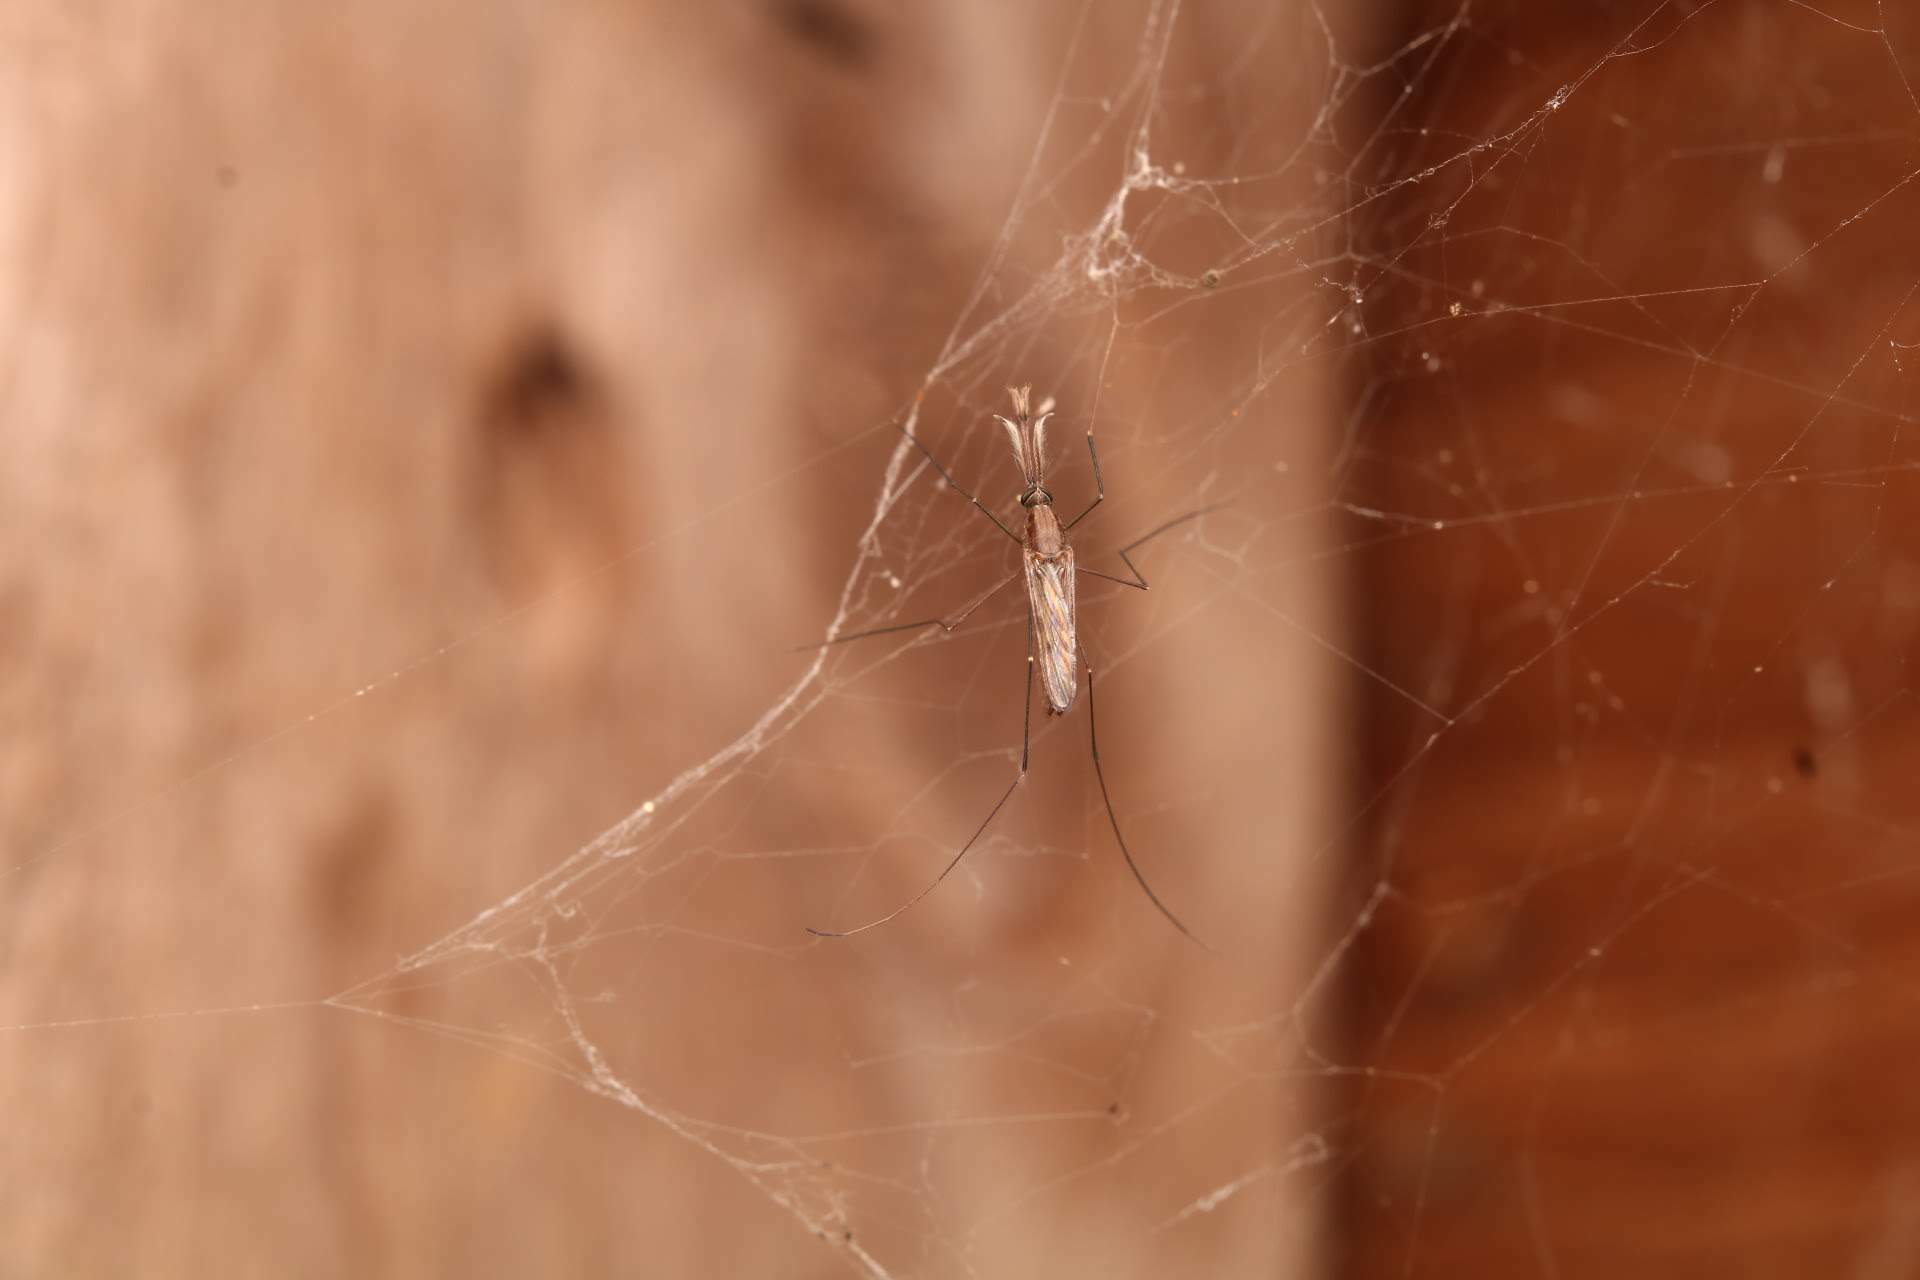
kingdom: Animalia
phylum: Arthropoda
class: Insecta
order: Diptera
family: Culicidae
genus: Anopheles
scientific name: Anopheles
